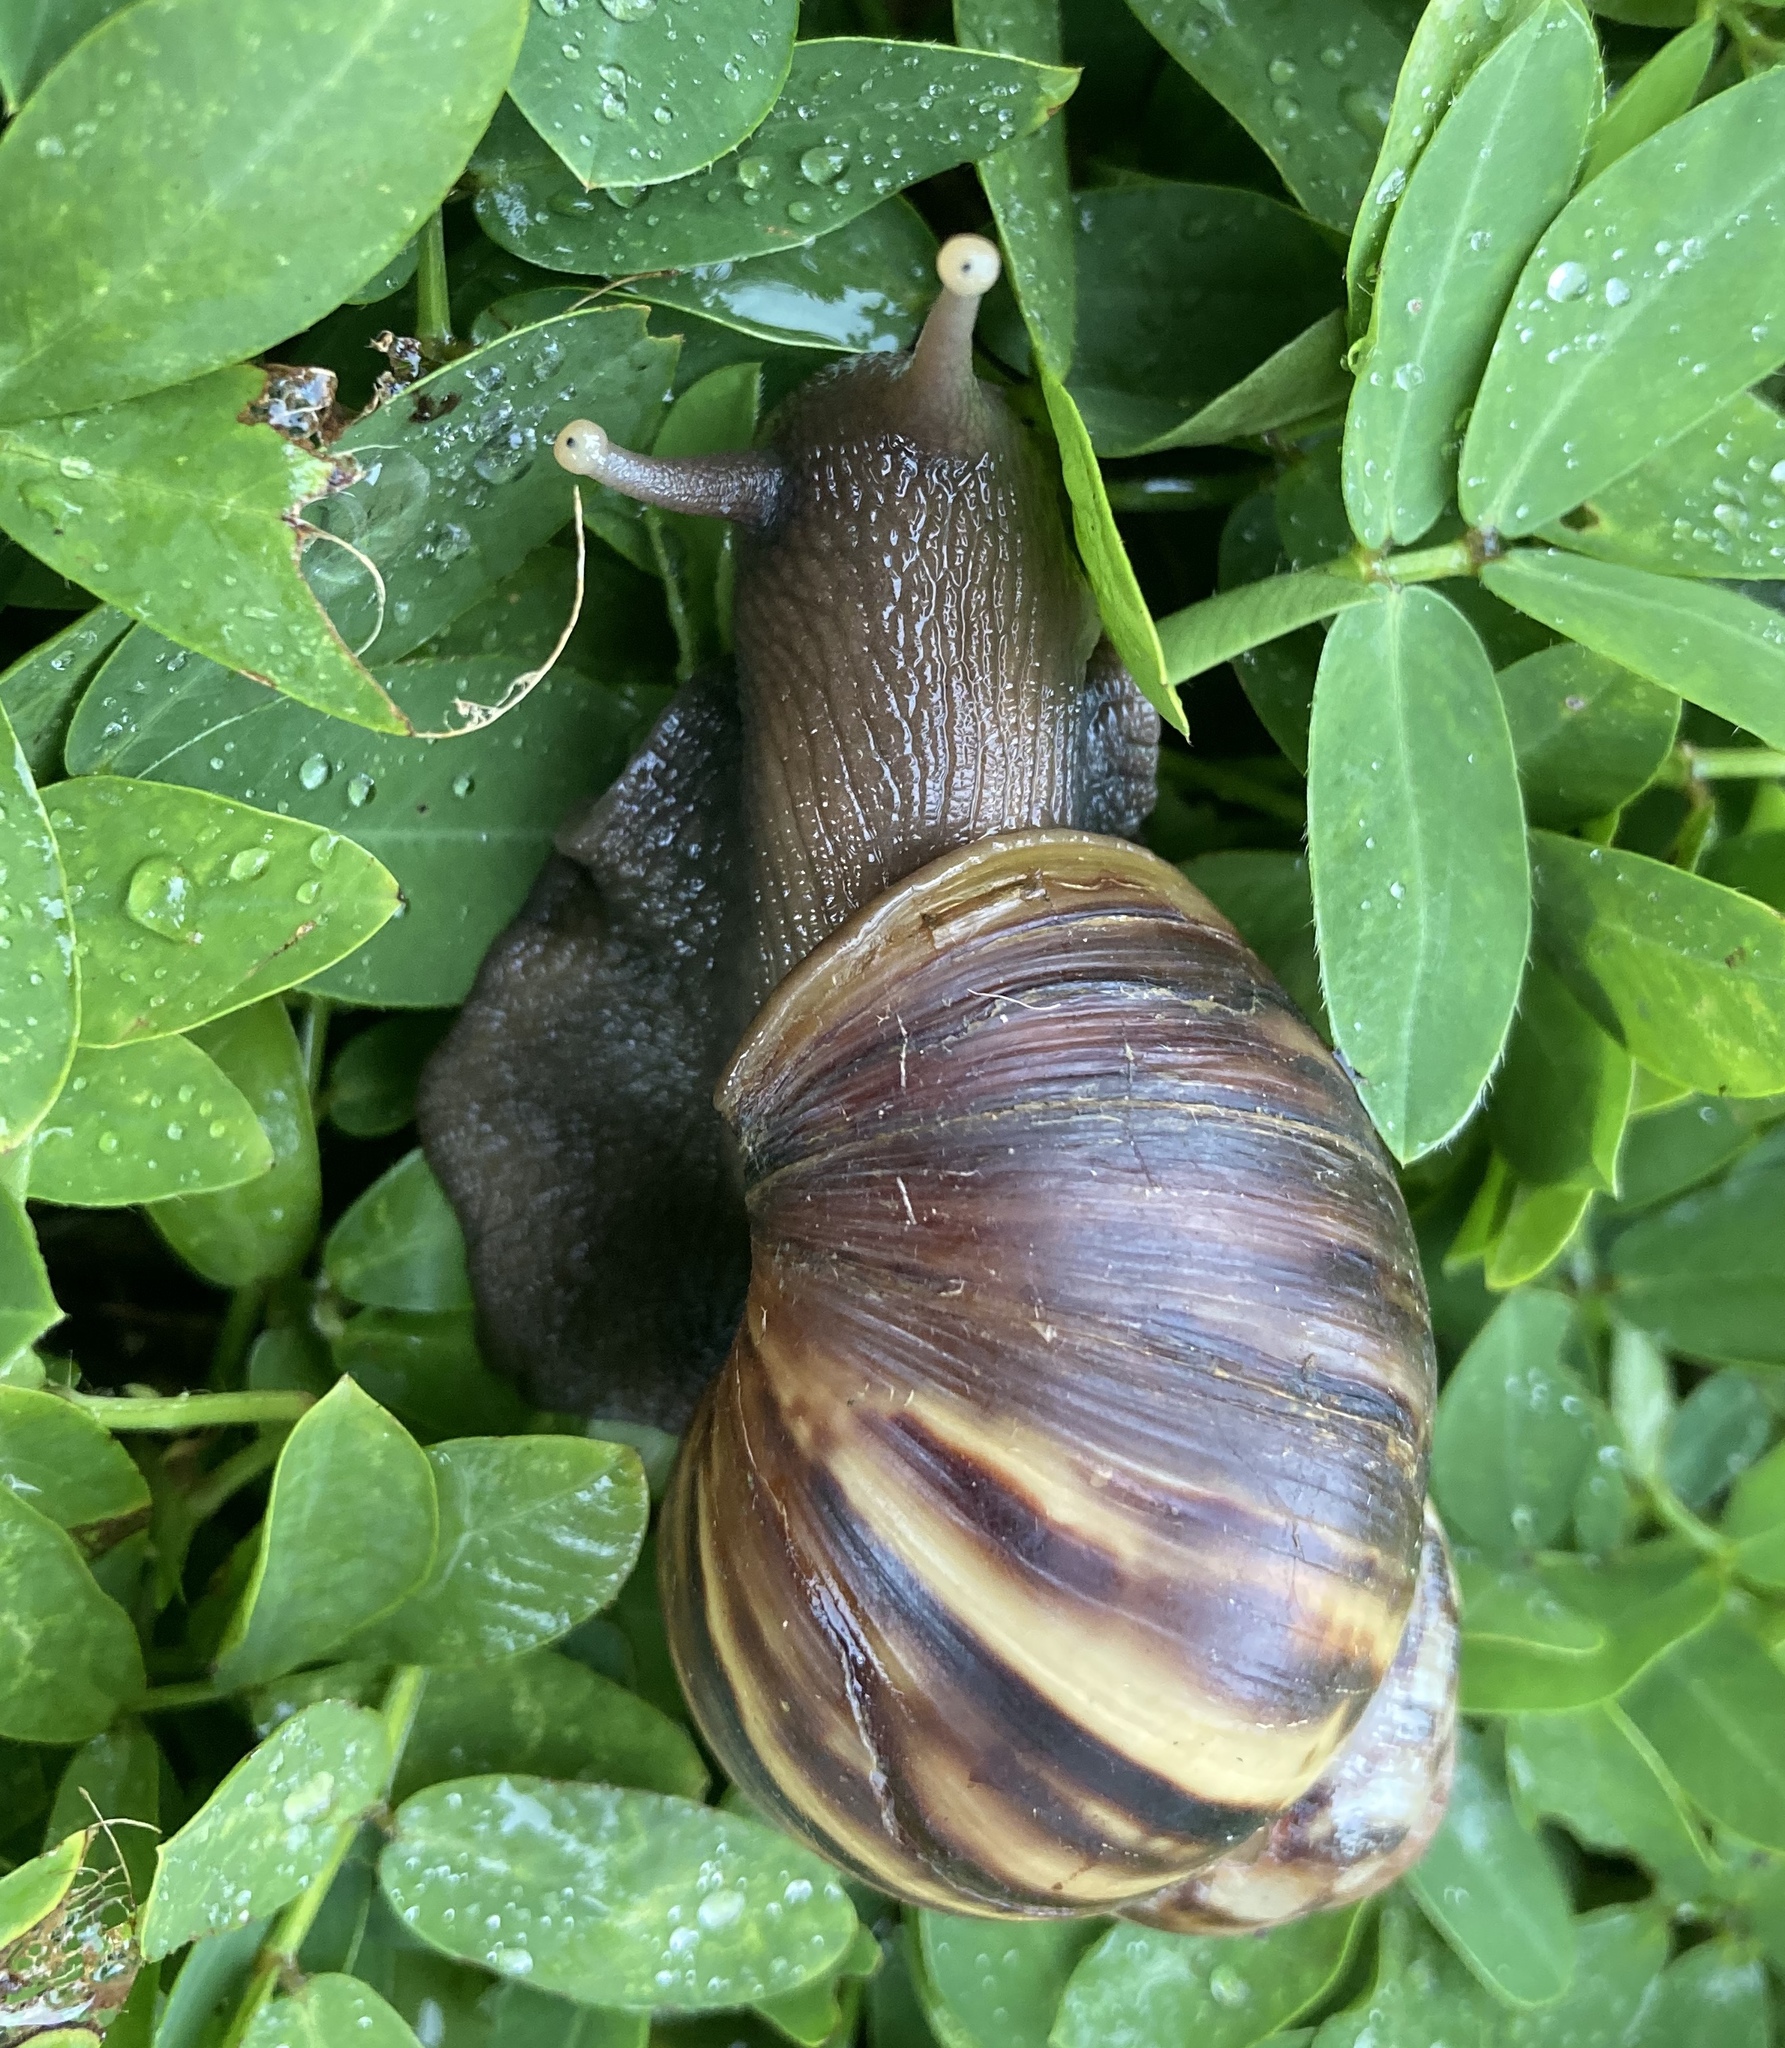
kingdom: Animalia
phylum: Mollusca
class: Gastropoda
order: Stylommatophora
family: Achatinidae
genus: Lissachatina
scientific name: Lissachatina fulica
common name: Giant african snail
